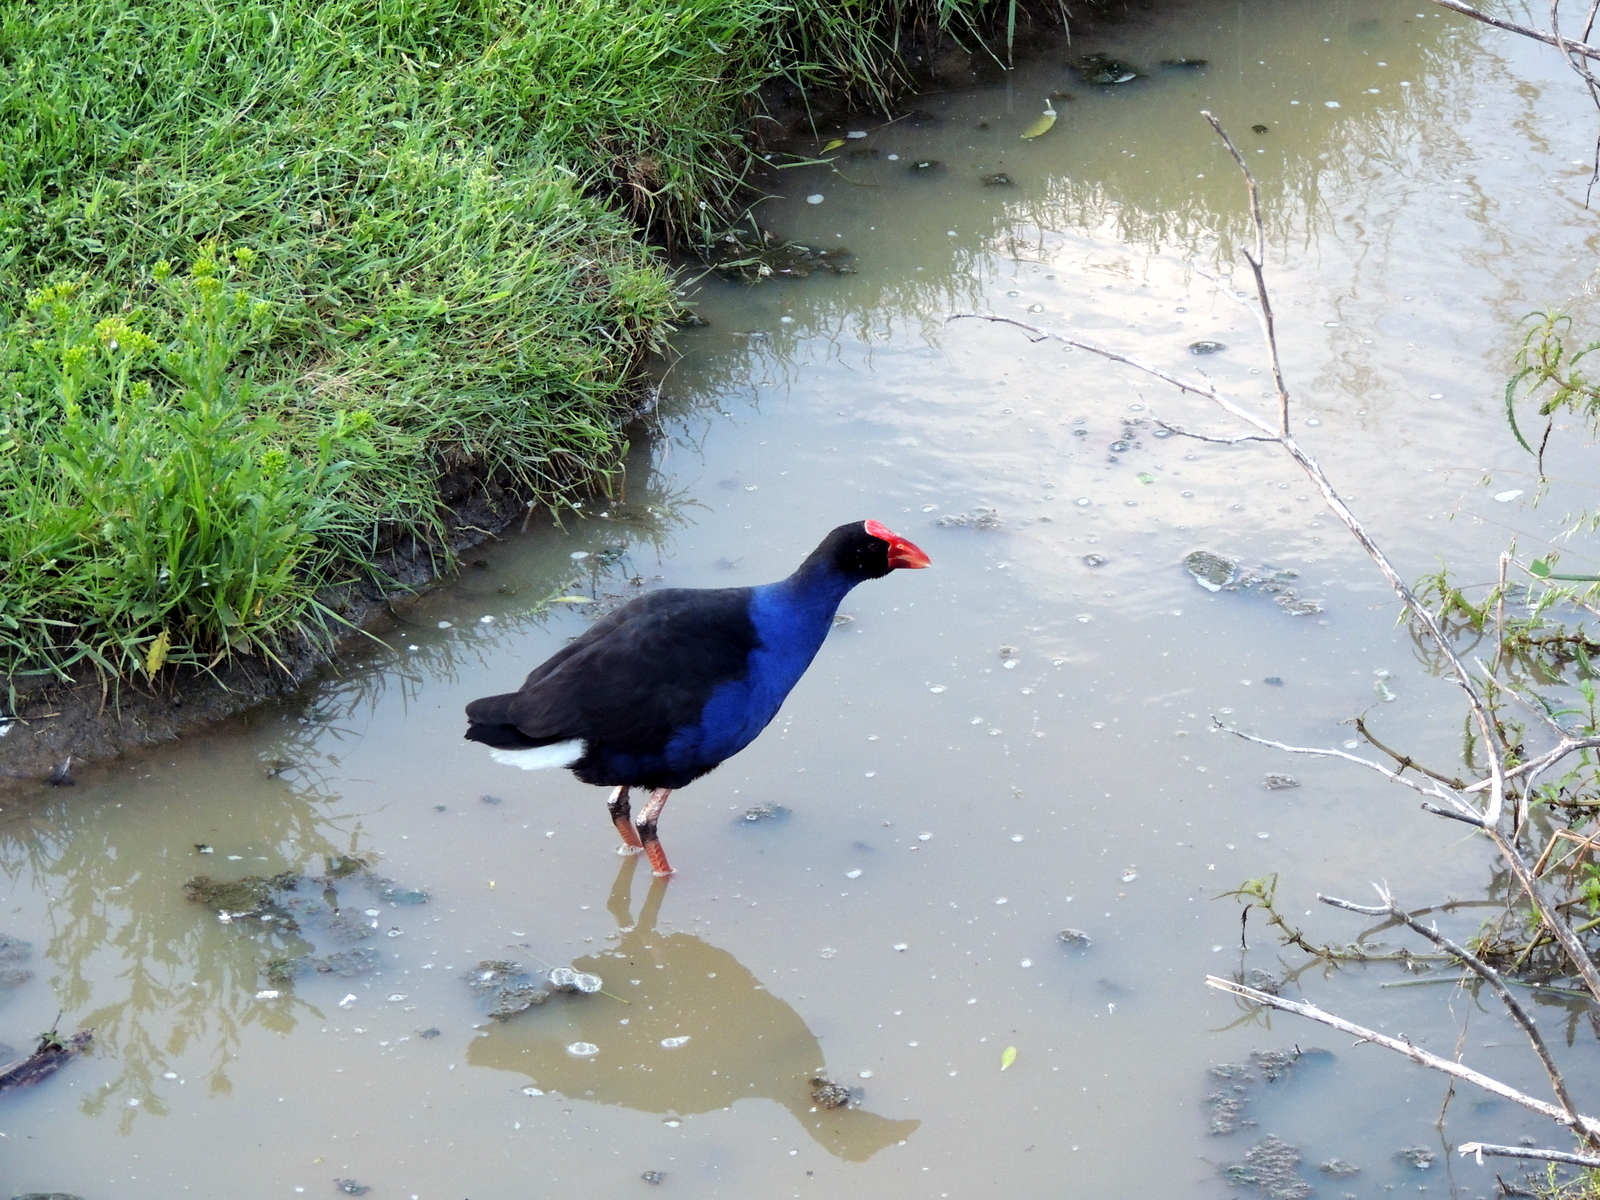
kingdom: Animalia
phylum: Chordata
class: Aves
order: Gruiformes
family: Rallidae
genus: Porphyrio
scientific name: Porphyrio melanotus
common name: Australasian swamphen
